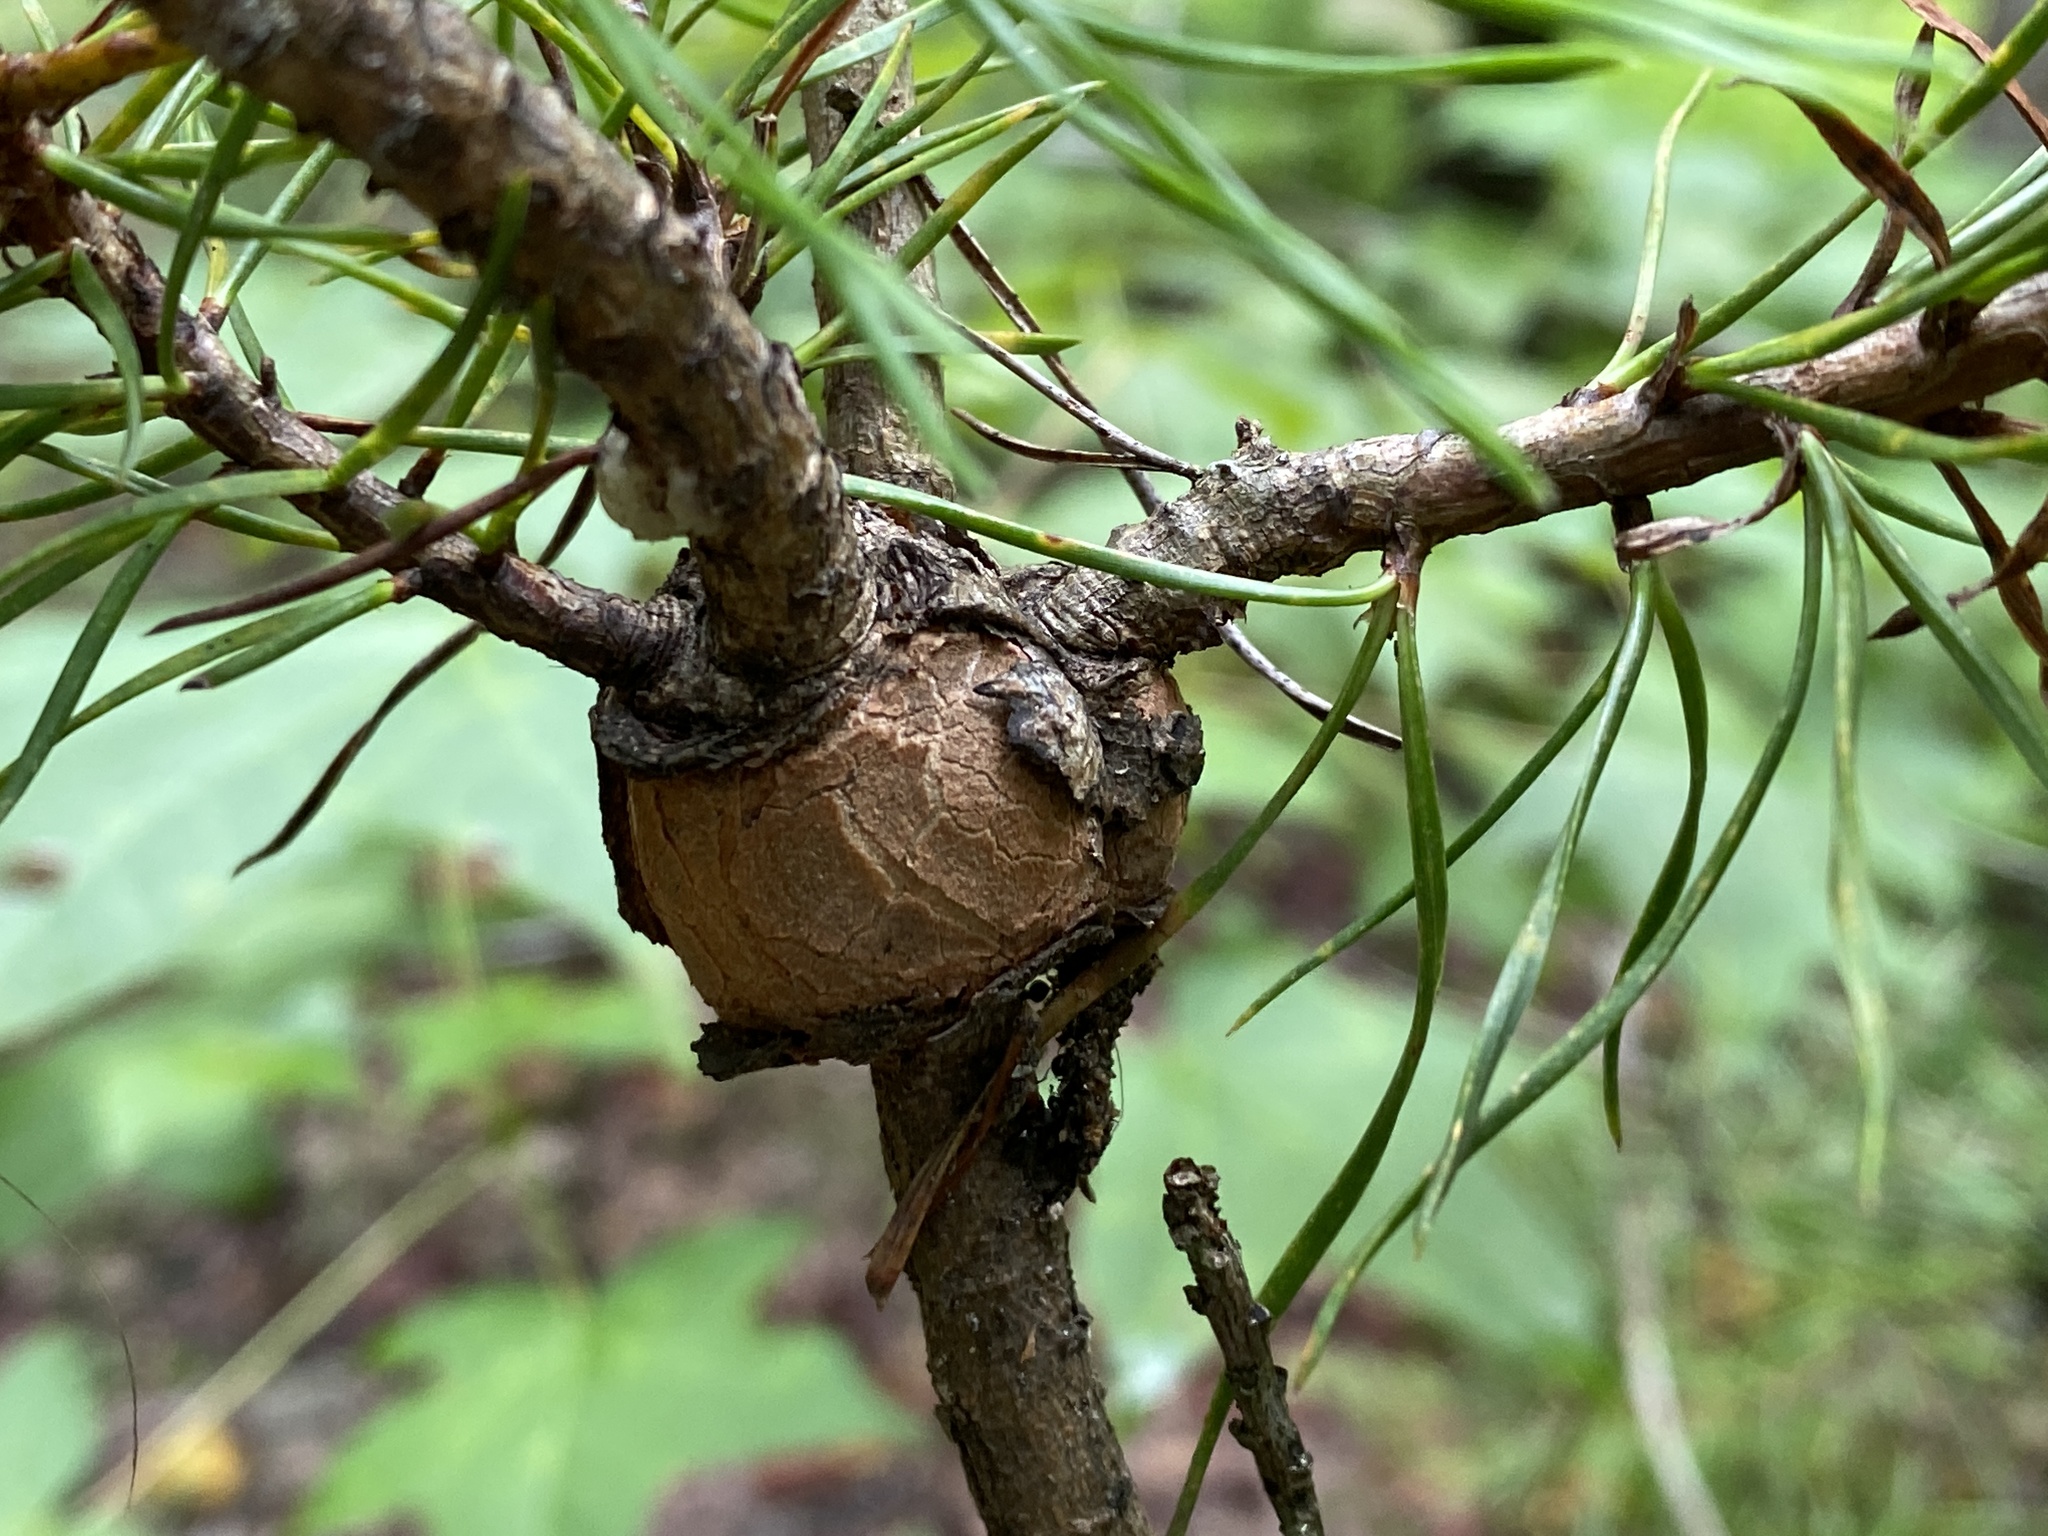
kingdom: Fungi
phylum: Basidiomycota
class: Pucciniomycetes
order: Pucciniales
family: Cronartiaceae
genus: Cronartium
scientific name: Cronartium quercuum
